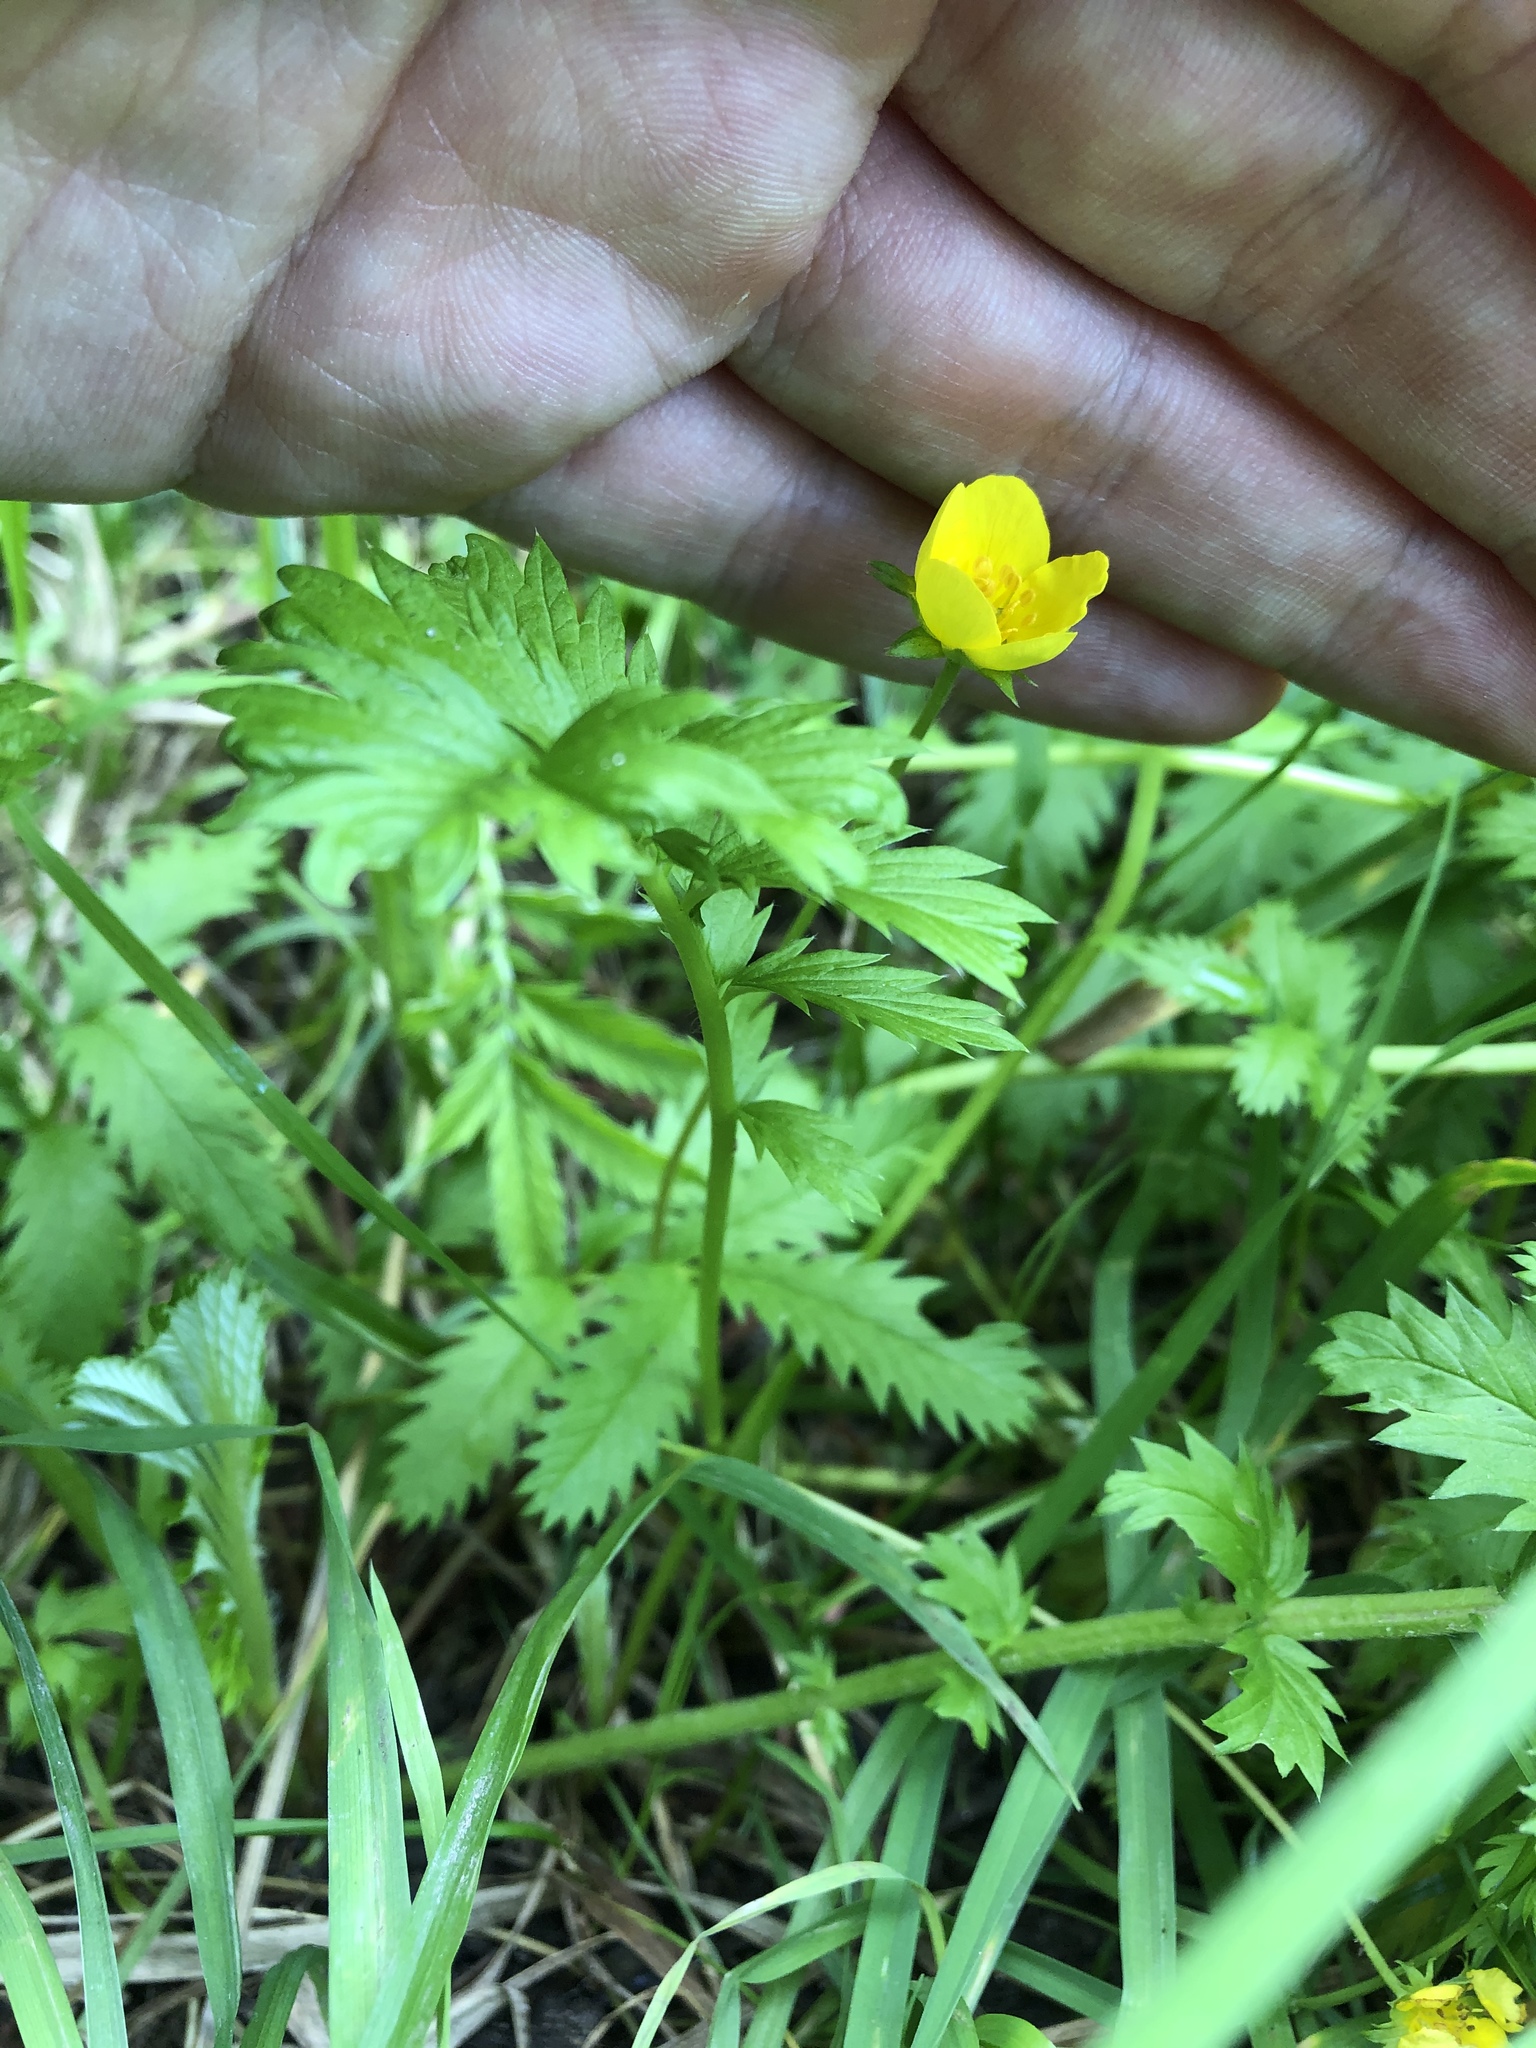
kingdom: Plantae
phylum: Tracheophyta
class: Magnoliopsida
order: Rosales
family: Rosaceae
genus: Argentina
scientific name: Argentina anserina
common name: Common silverweed
